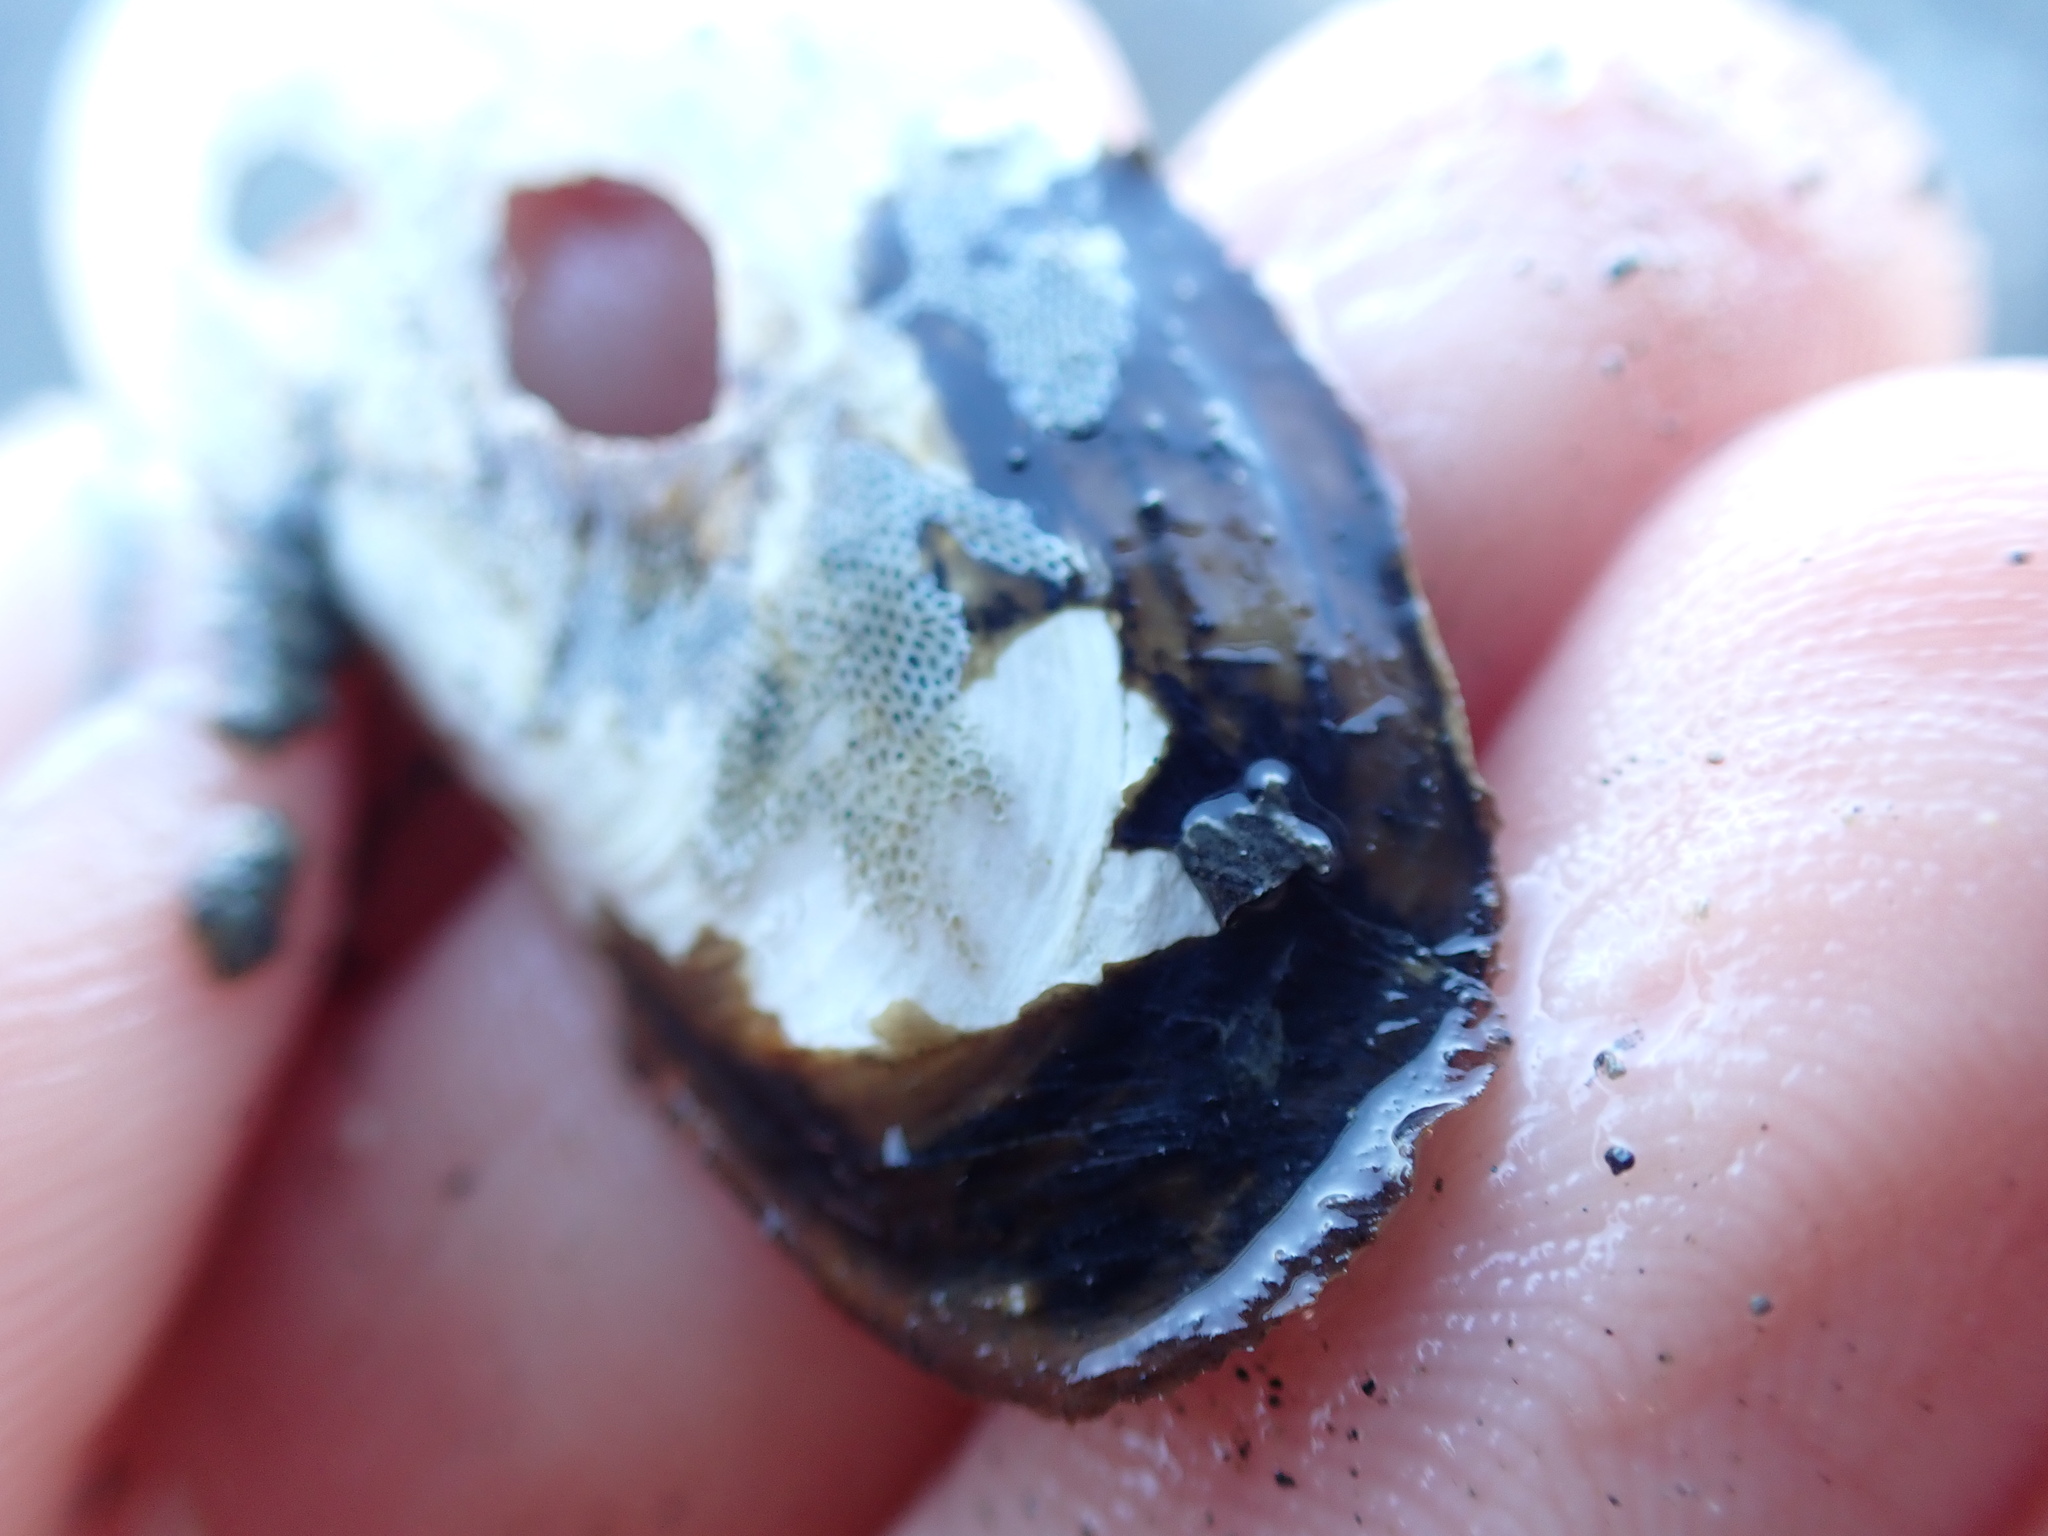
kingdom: Animalia
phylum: Mollusca
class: Bivalvia
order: Venerida
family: Mactridae
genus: Zenatia
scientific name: Zenatia acinaces
